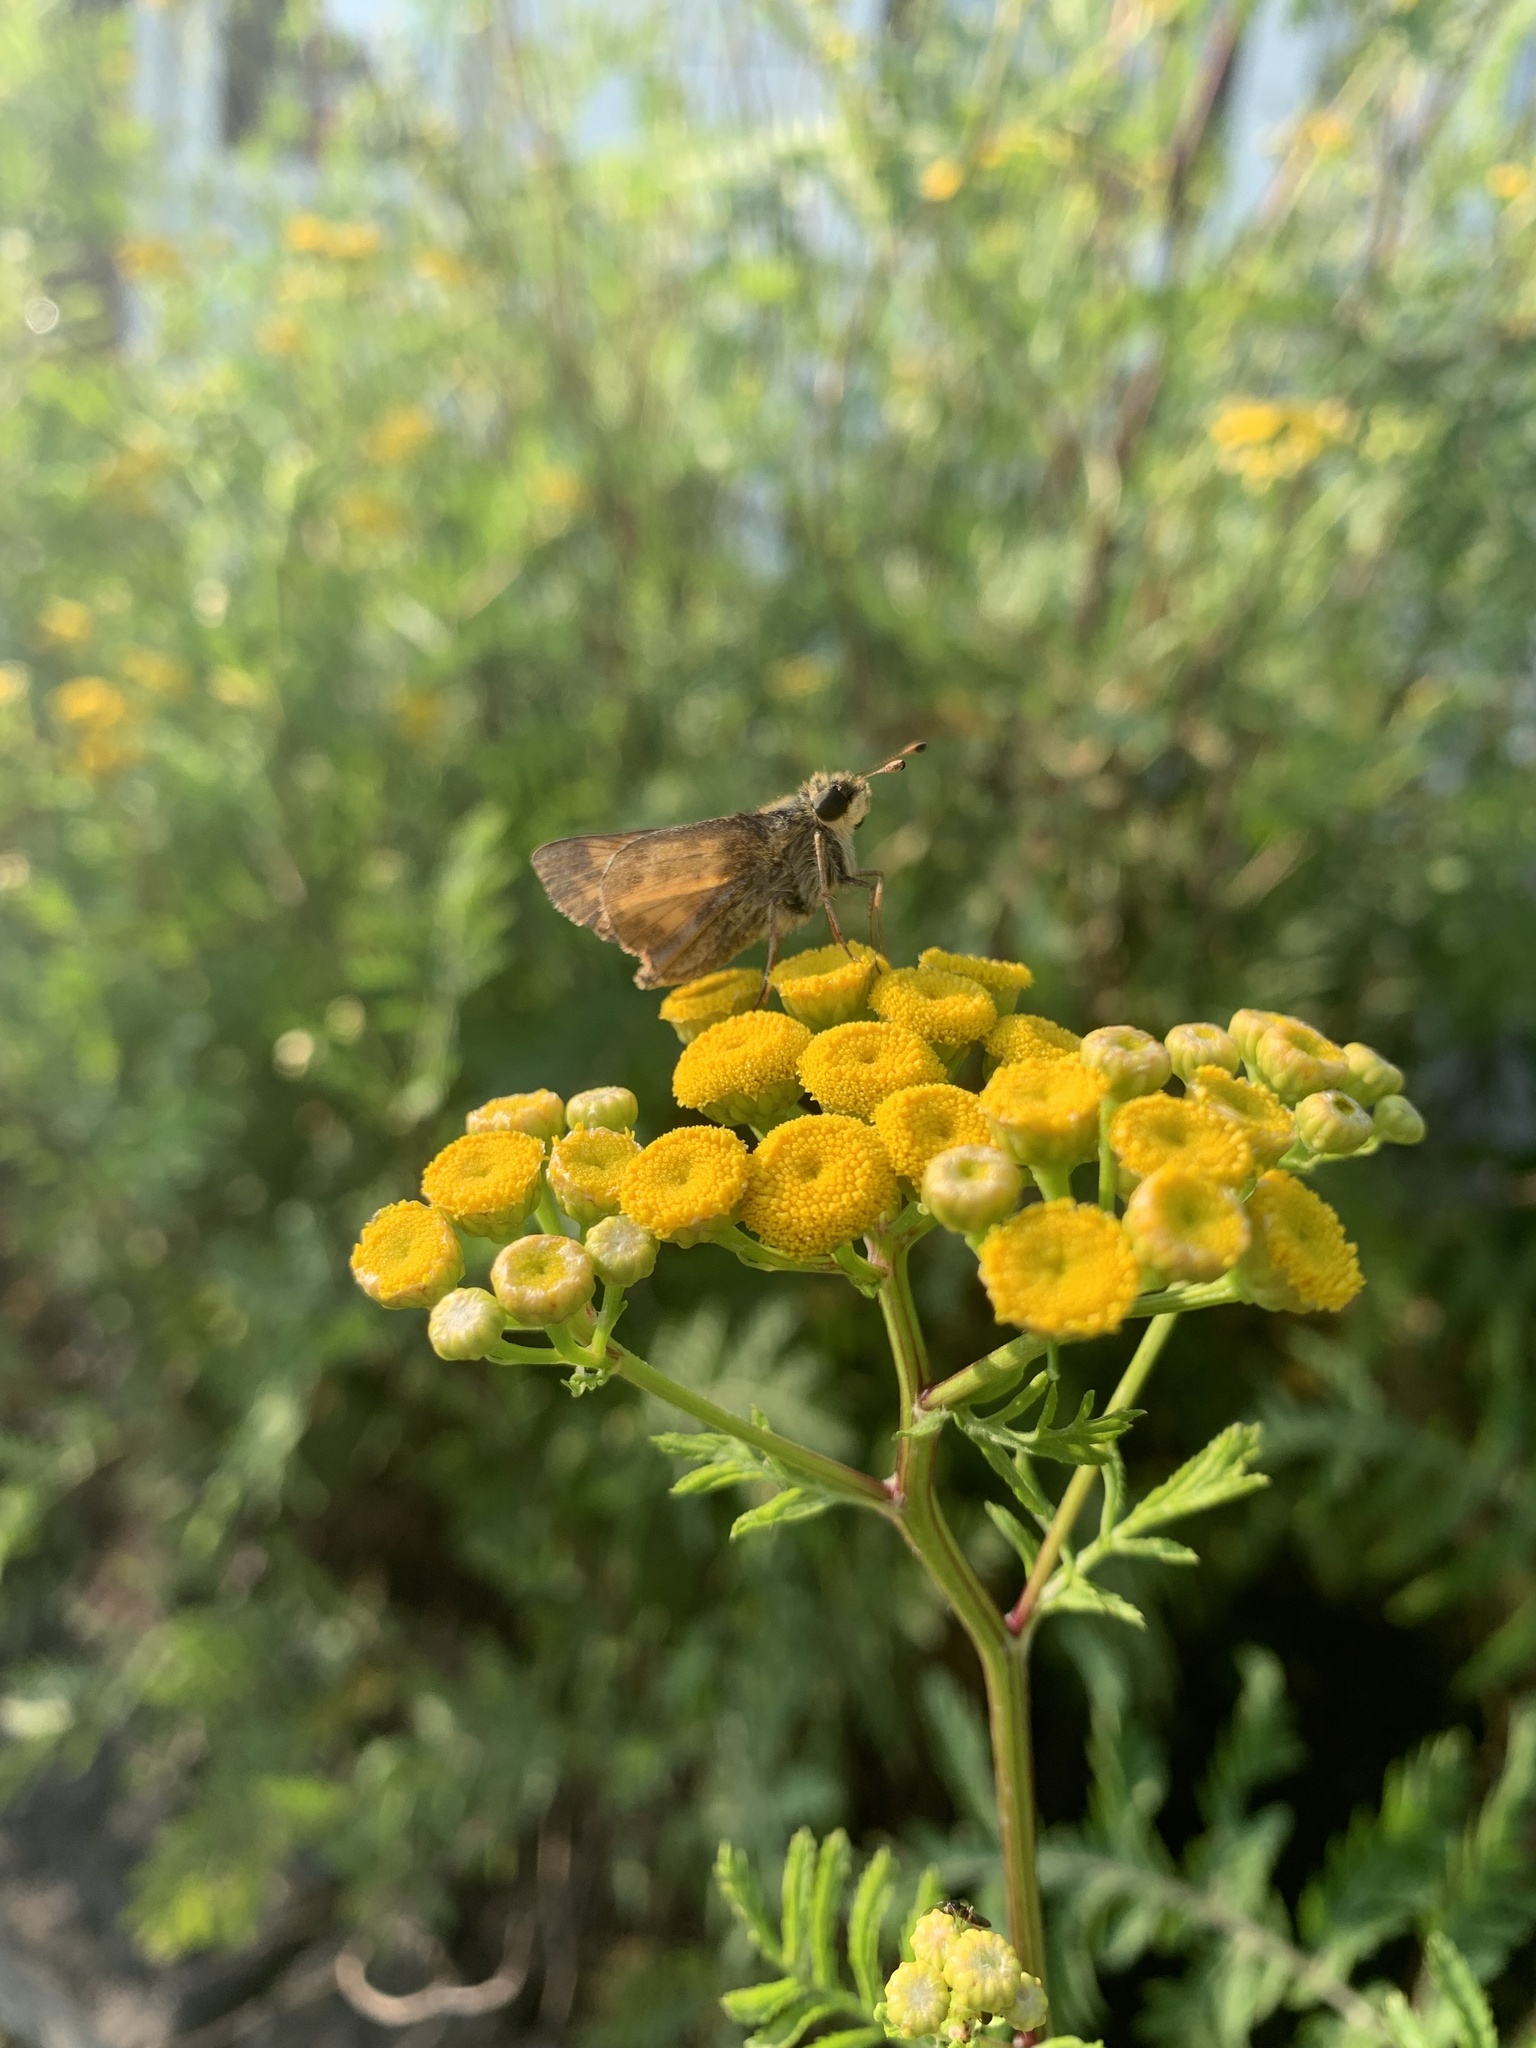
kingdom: Animalia
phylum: Arthropoda
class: Insecta
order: Lepidoptera
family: Hesperiidae
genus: Atalopedes
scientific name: Atalopedes
